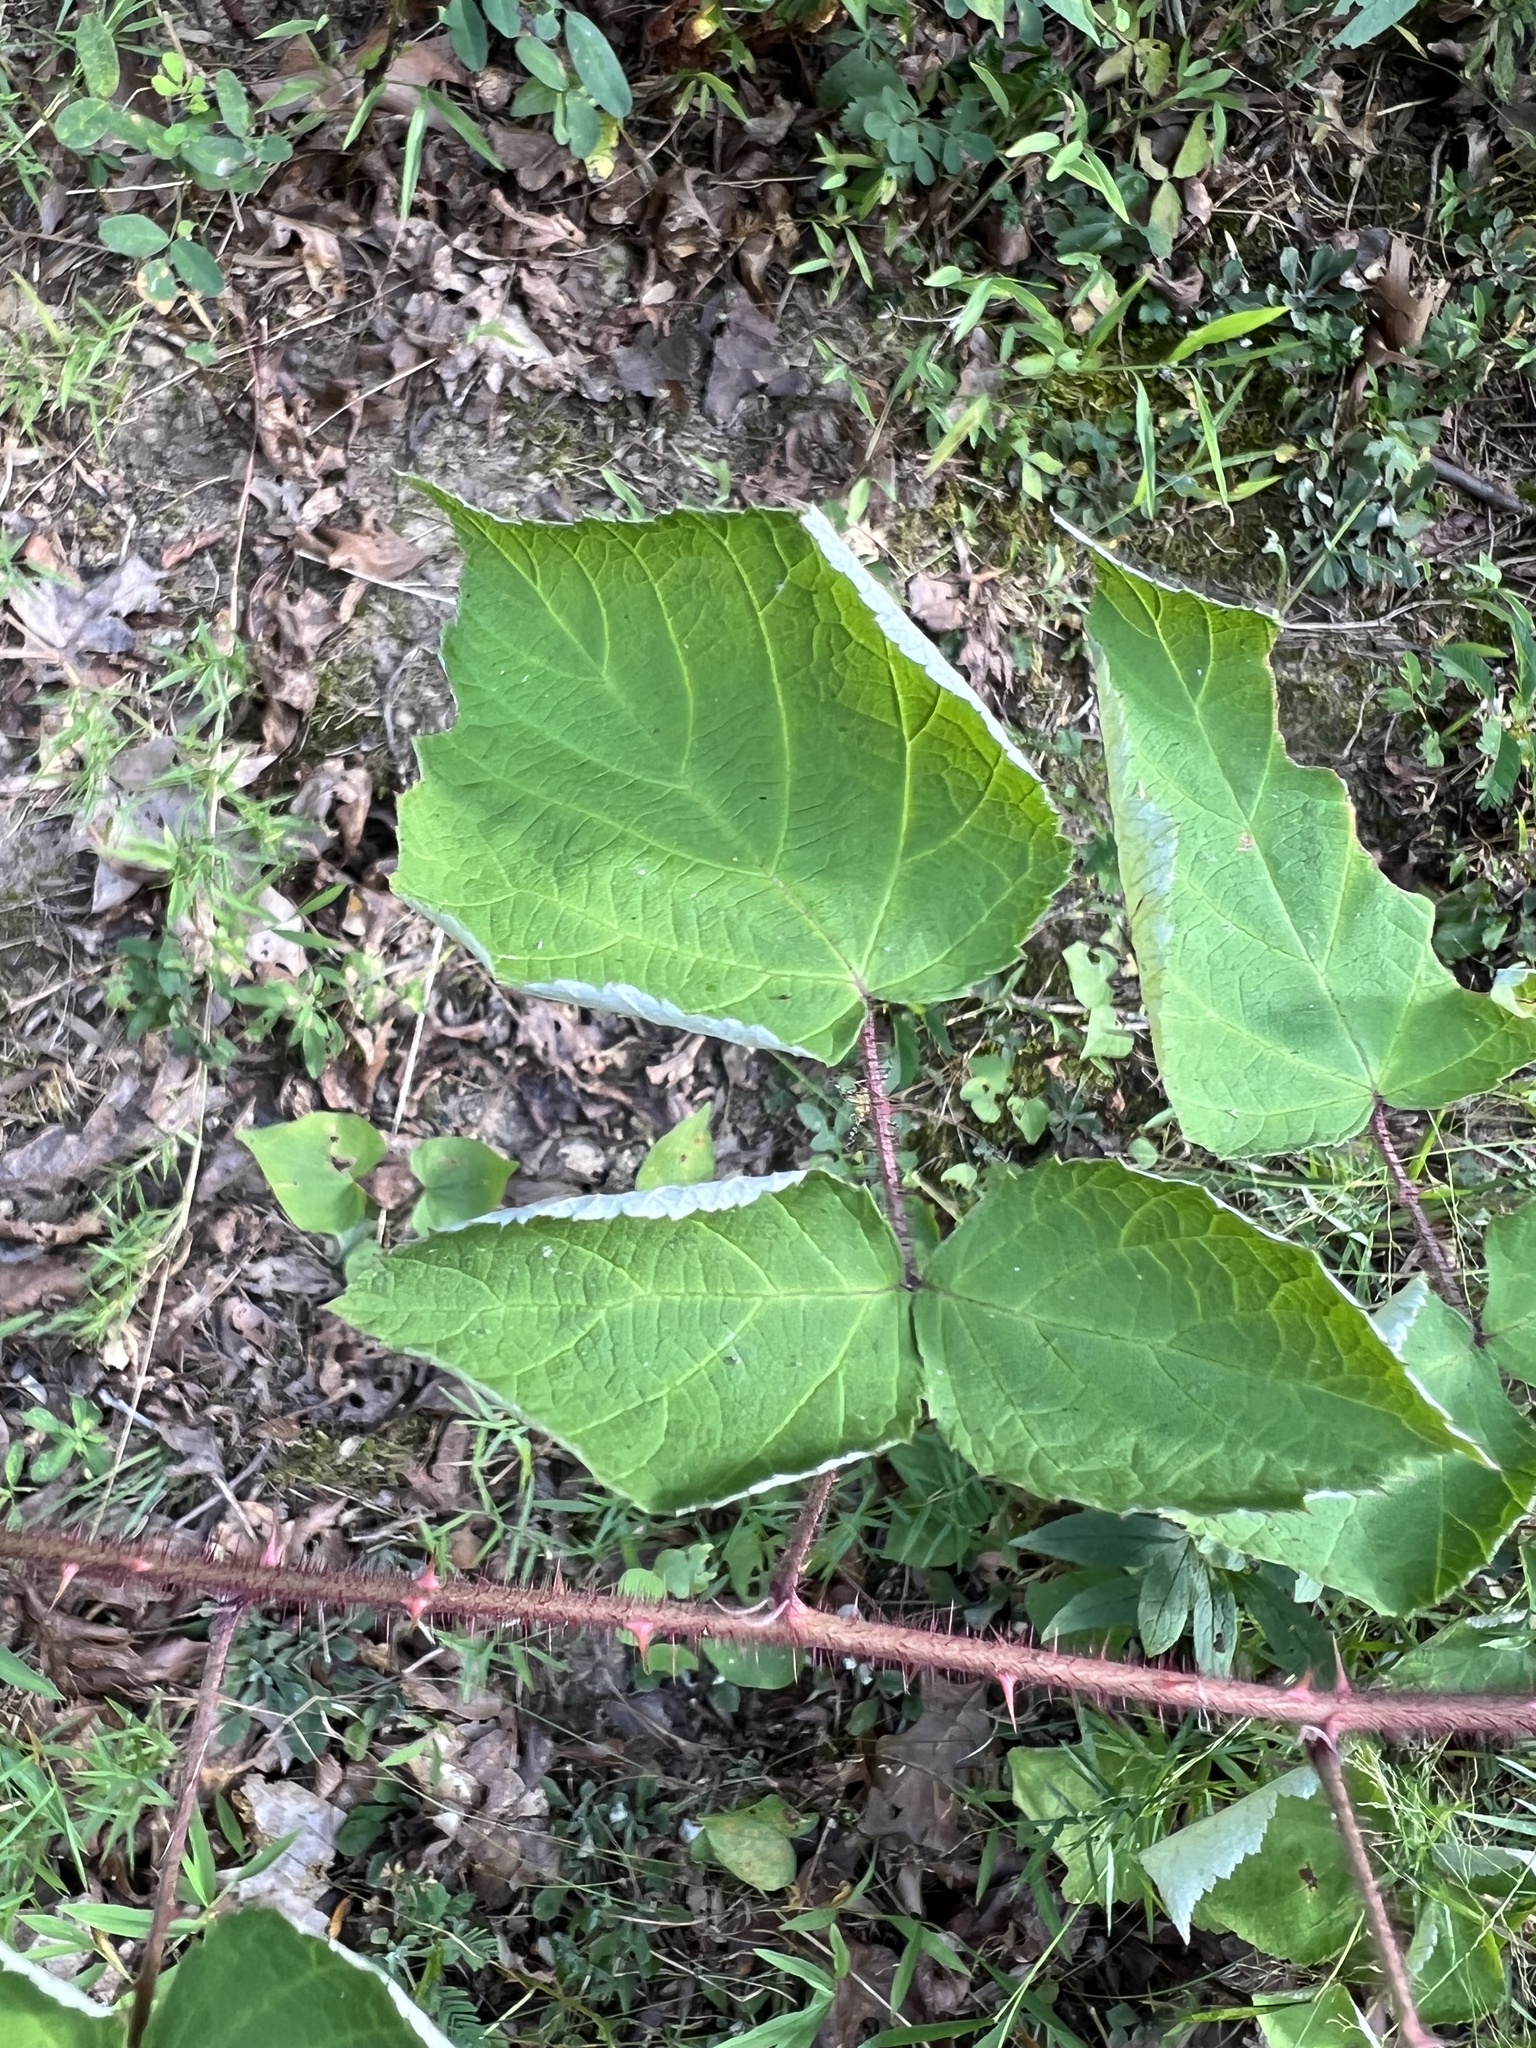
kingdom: Plantae
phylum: Tracheophyta
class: Magnoliopsida
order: Rosales
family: Rosaceae
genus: Rubus
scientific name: Rubus phoenicolasius
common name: Japanese wineberry
